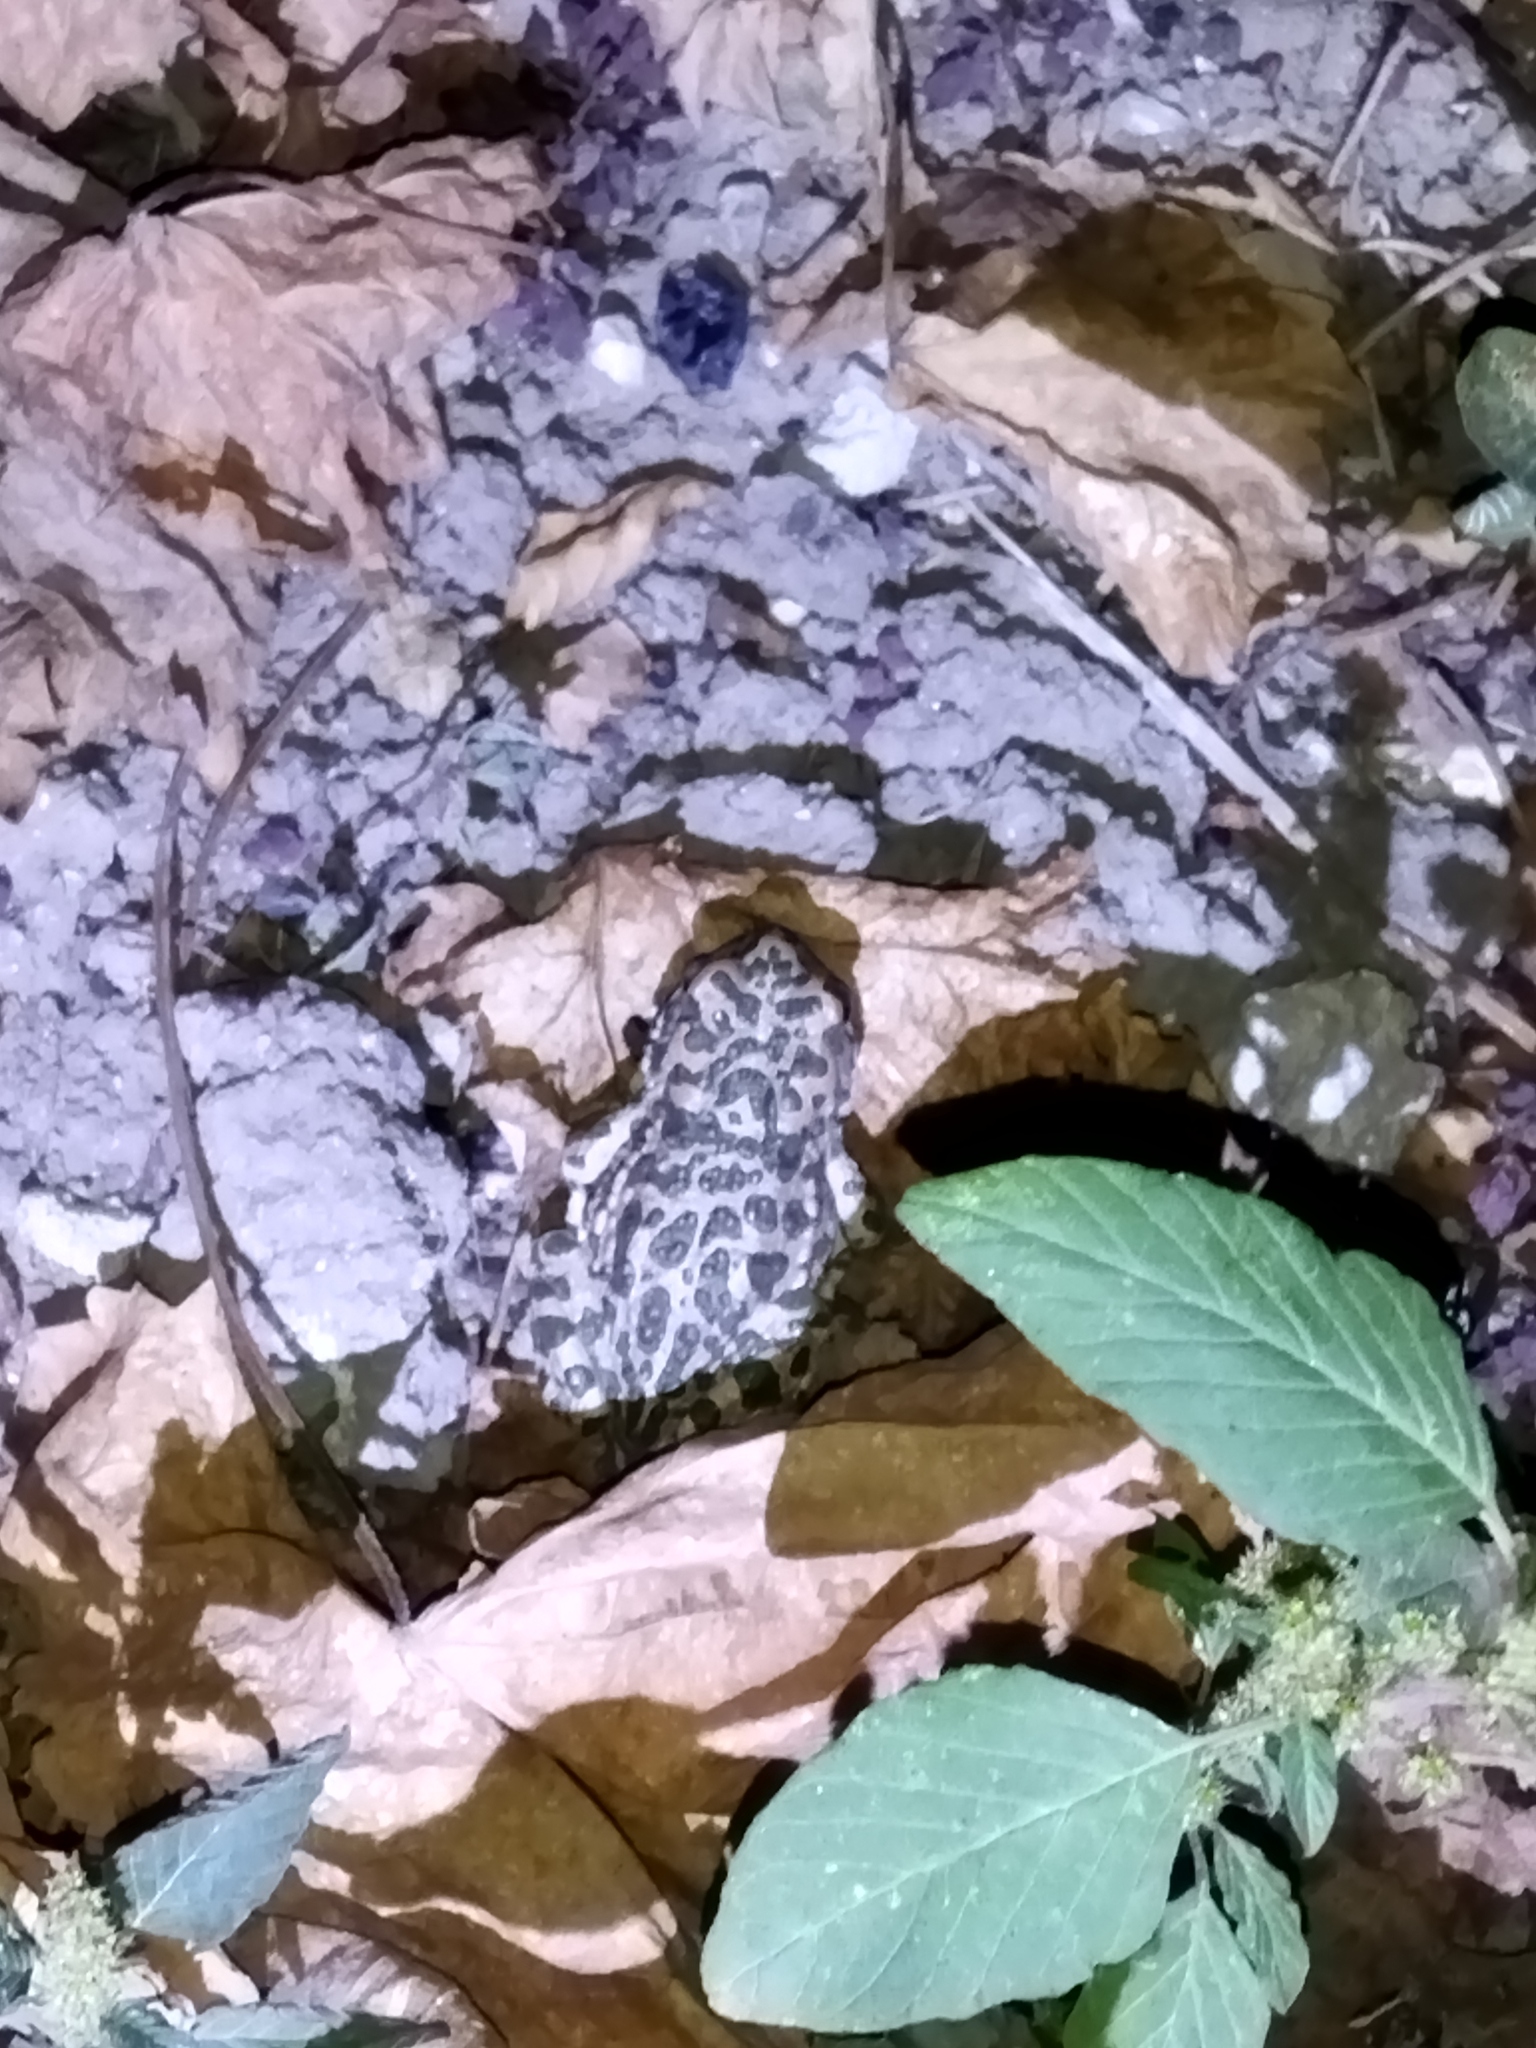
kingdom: Animalia
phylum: Chordata
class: Amphibia
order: Anura
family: Bufonidae
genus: Bufotes
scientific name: Bufotes viridis
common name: European green toad
